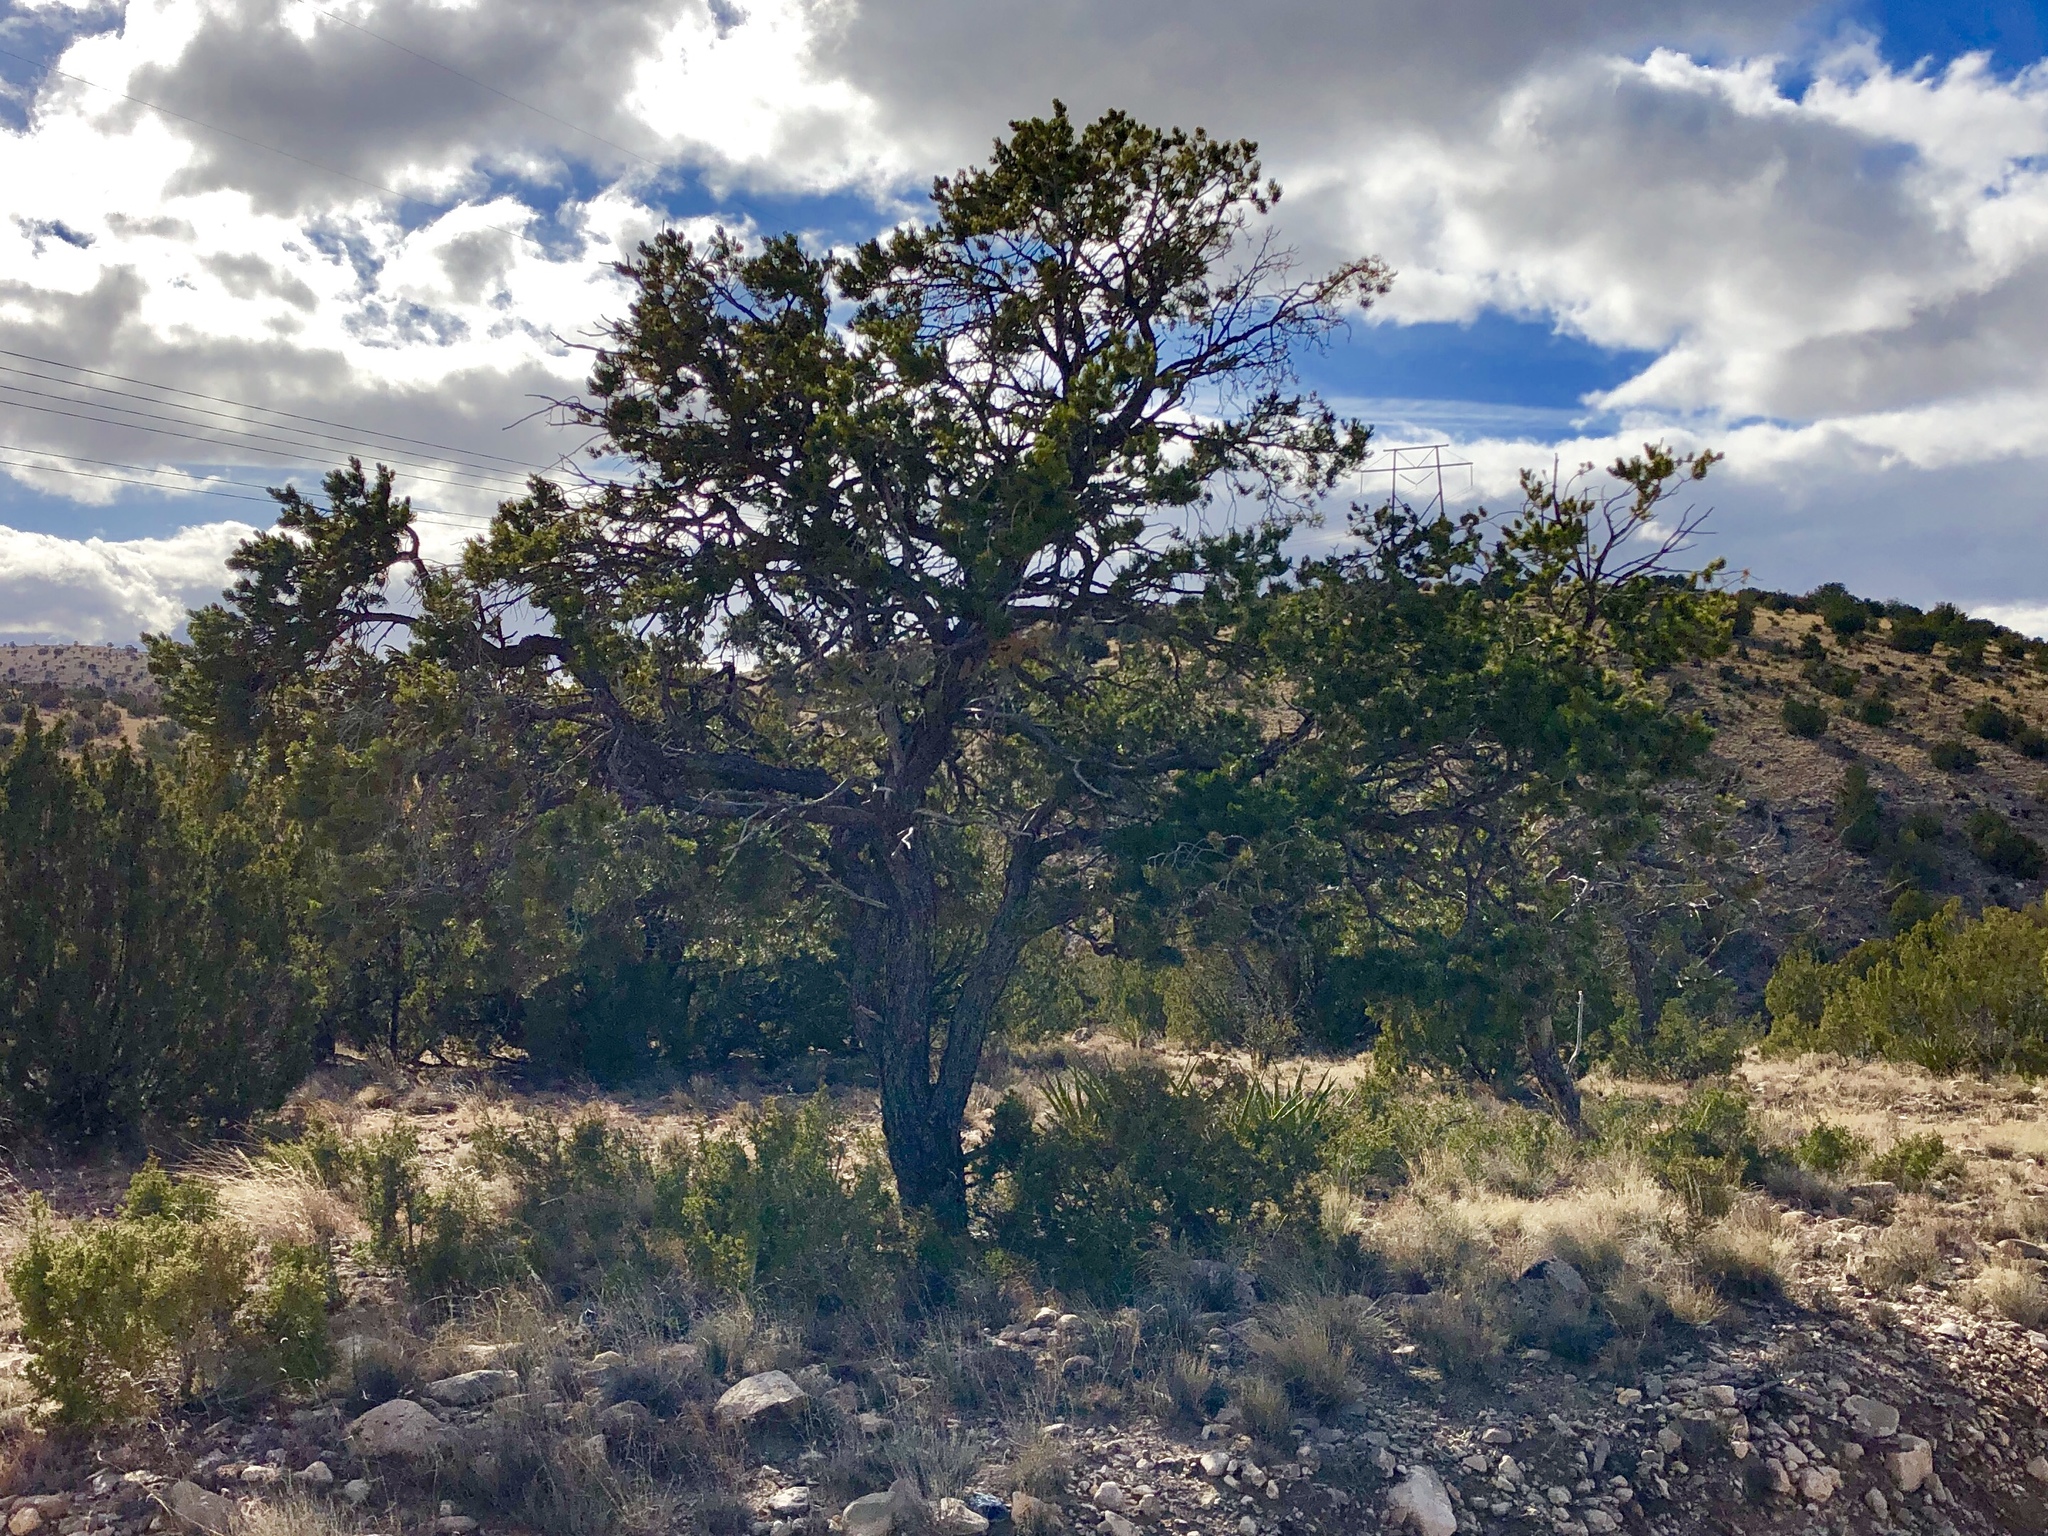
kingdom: Plantae
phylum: Tracheophyta
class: Pinopsida
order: Pinales
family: Pinaceae
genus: Pinus
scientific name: Pinus edulis
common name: Colorado pinyon
